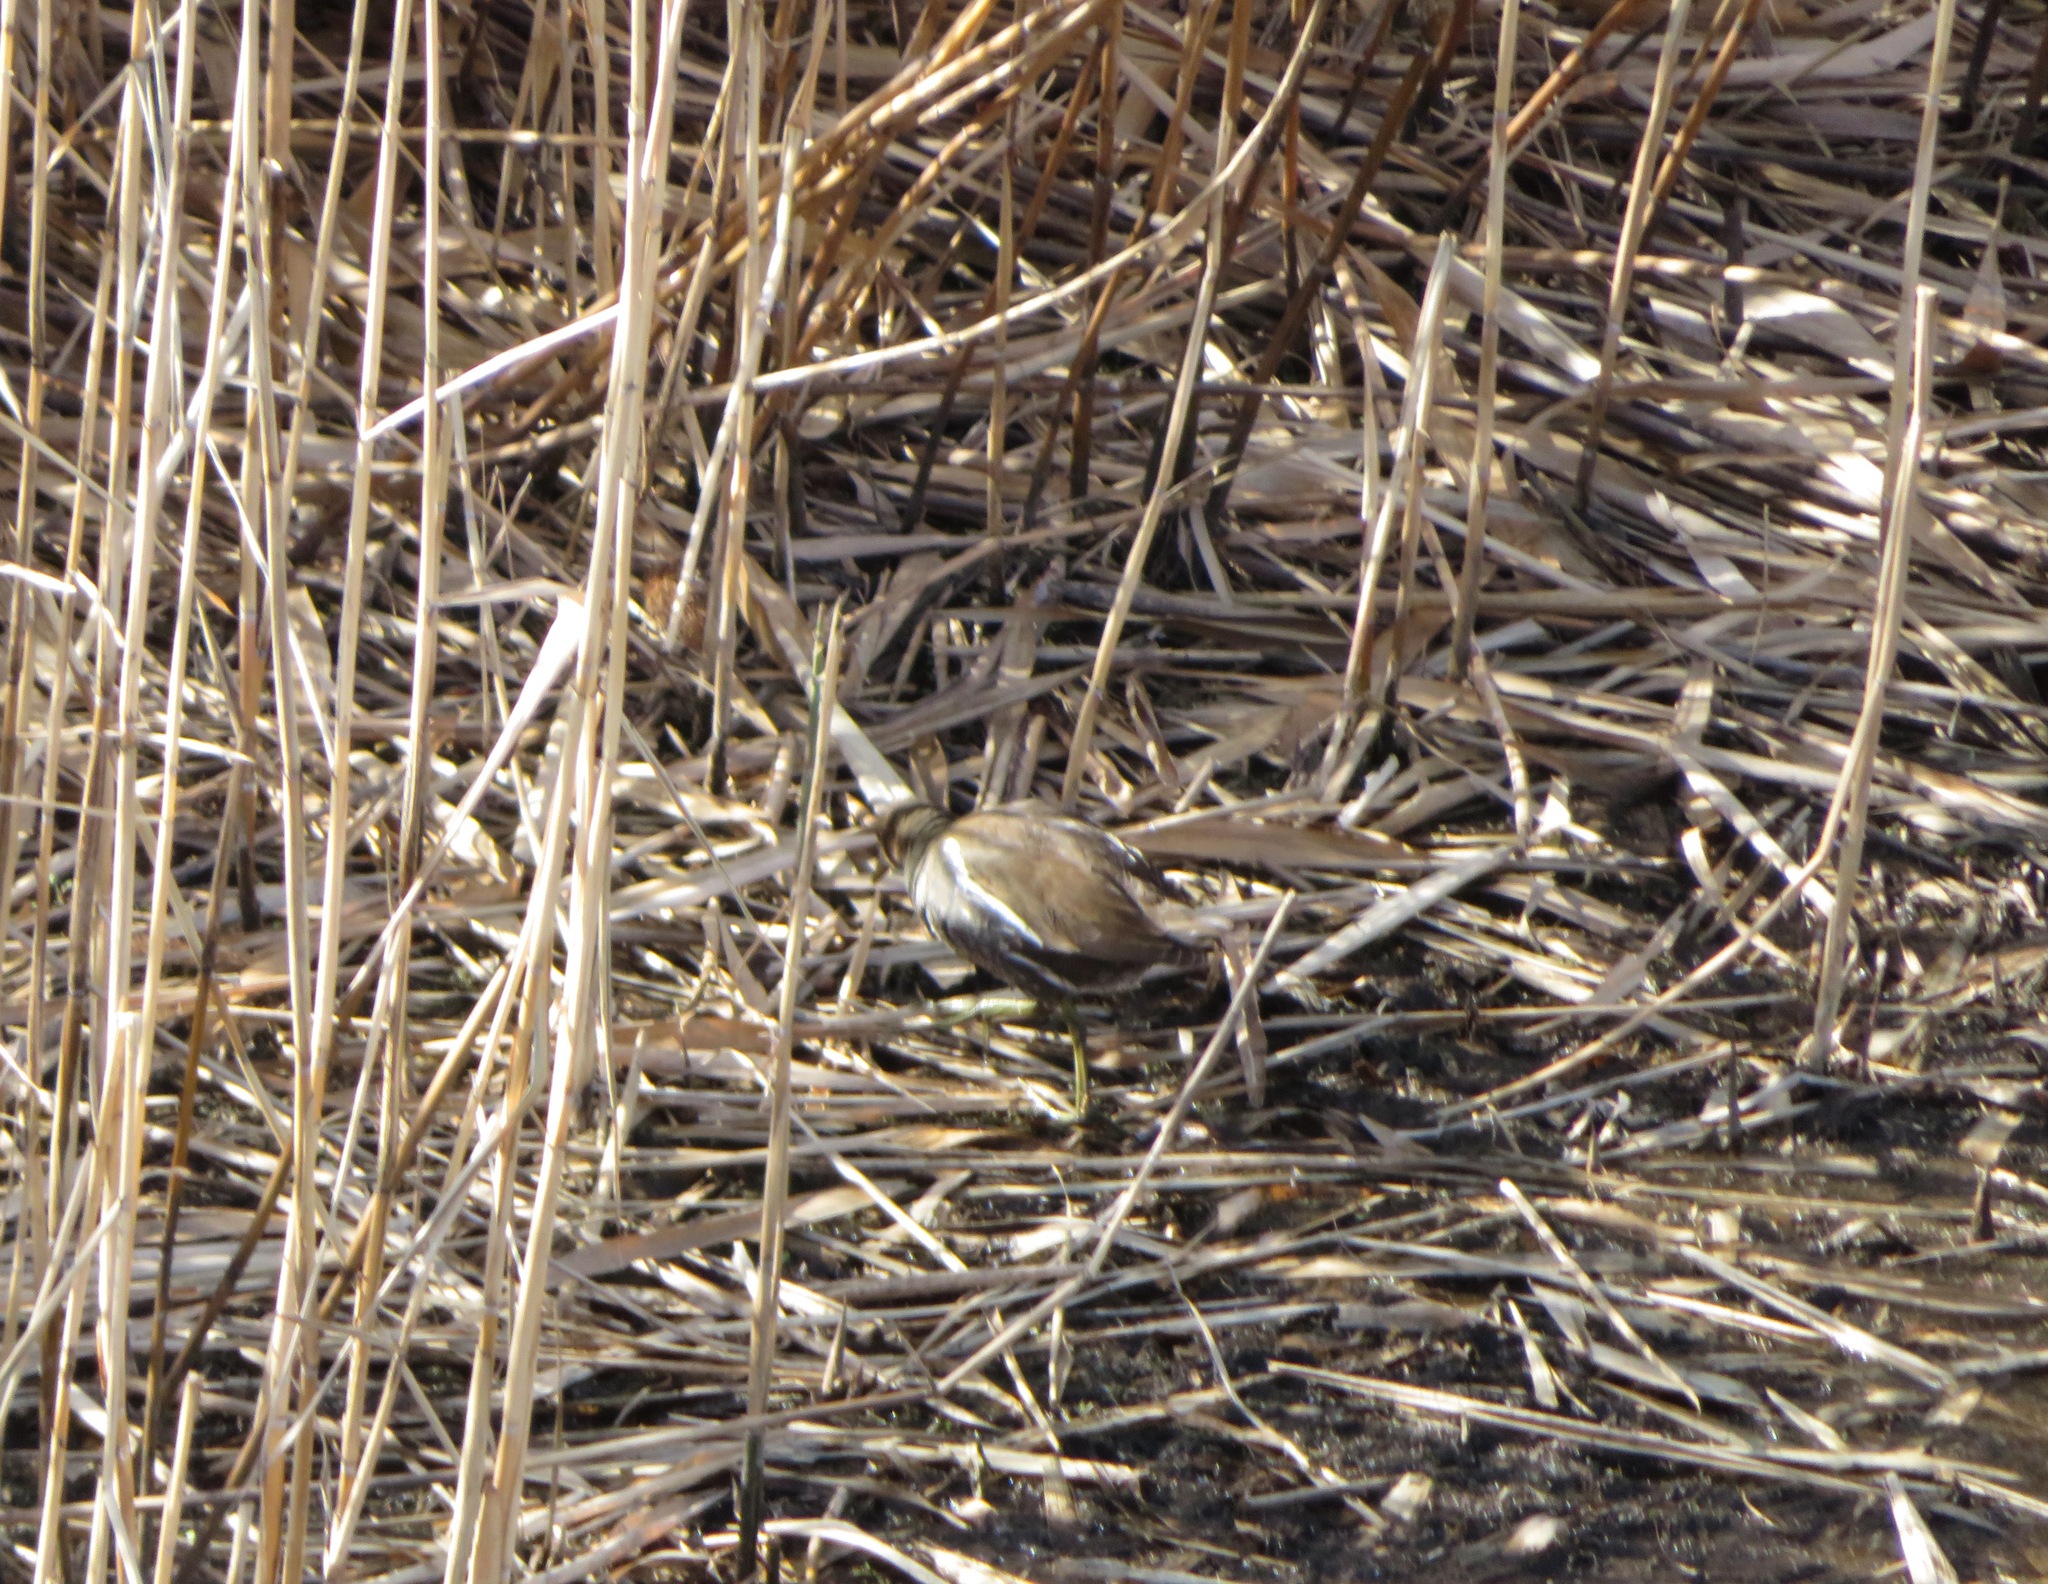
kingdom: Animalia
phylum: Chordata
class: Aves
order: Gruiformes
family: Rallidae
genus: Gallinula
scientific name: Gallinula chloropus
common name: Common moorhen
